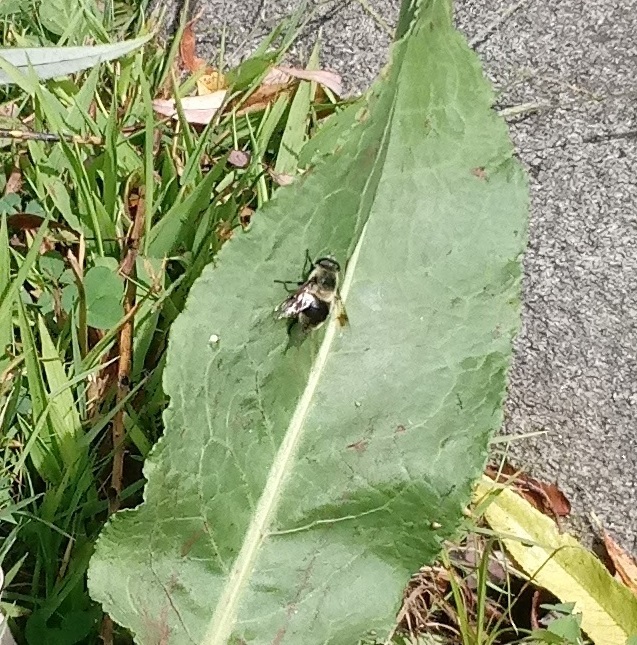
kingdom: Animalia
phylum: Arthropoda
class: Insecta
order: Diptera
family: Syrphidae
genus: Eristalis
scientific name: Eristalis anthophorina
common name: Orange-spotted drone fly
